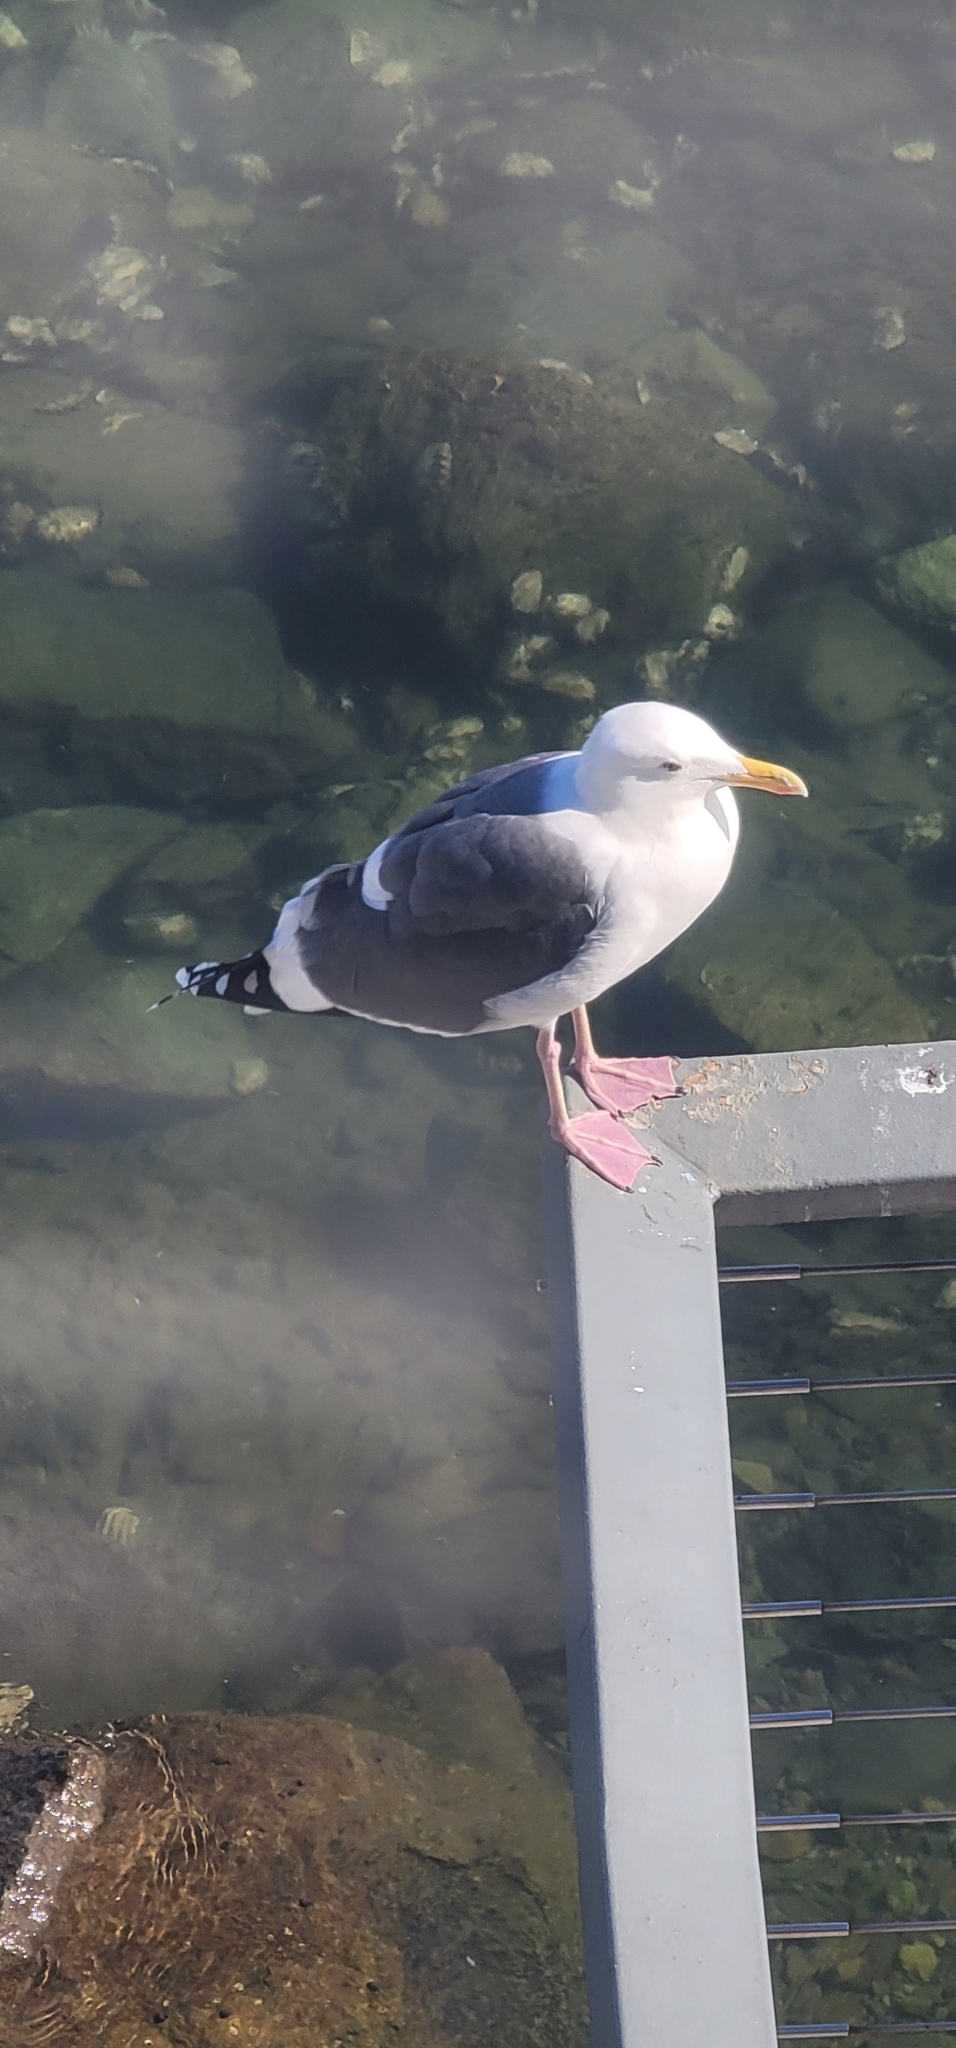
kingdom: Animalia
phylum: Chordata
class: Aves
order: Charadriiformes
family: Laridae
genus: Larus
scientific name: Larus occidentalis
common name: Western gull
